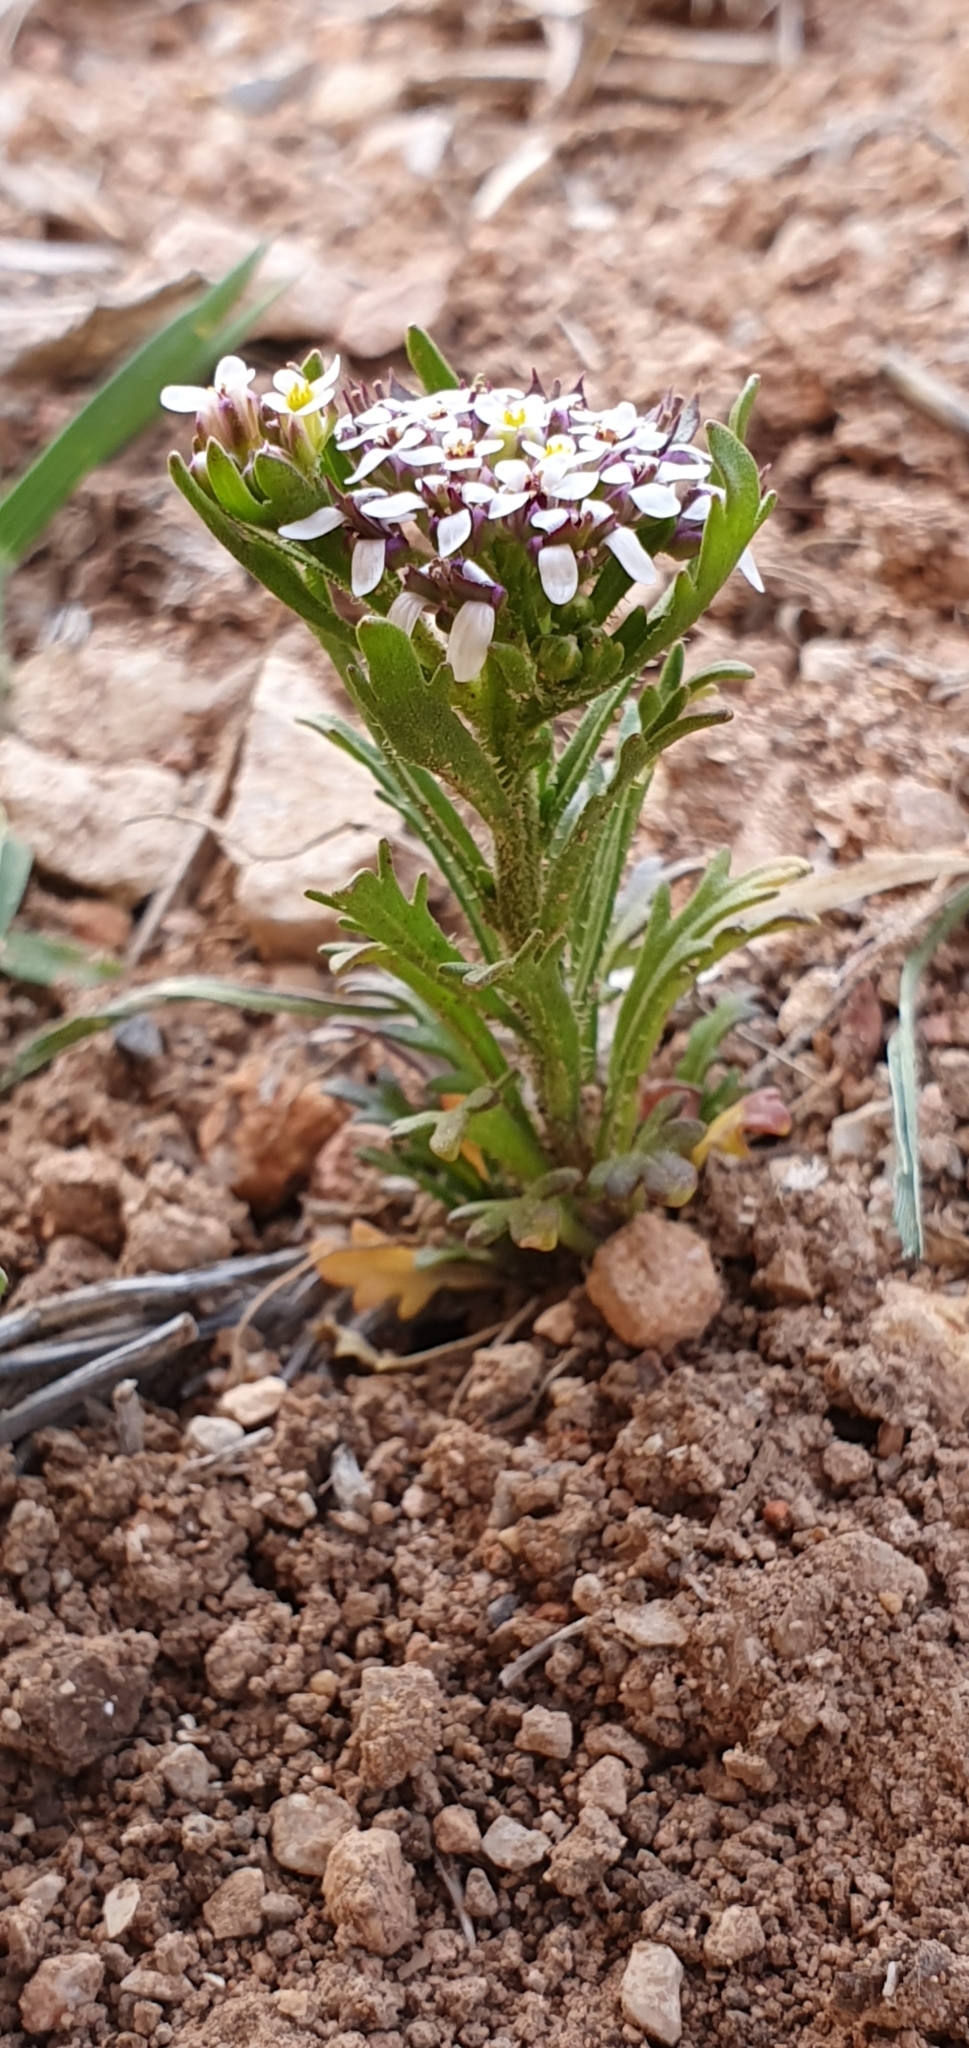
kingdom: Plantae
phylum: Tracheophyta
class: Magnoliopsida
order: Brassicales
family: Brassicaceae
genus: Iberis
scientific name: Iberis odorata
